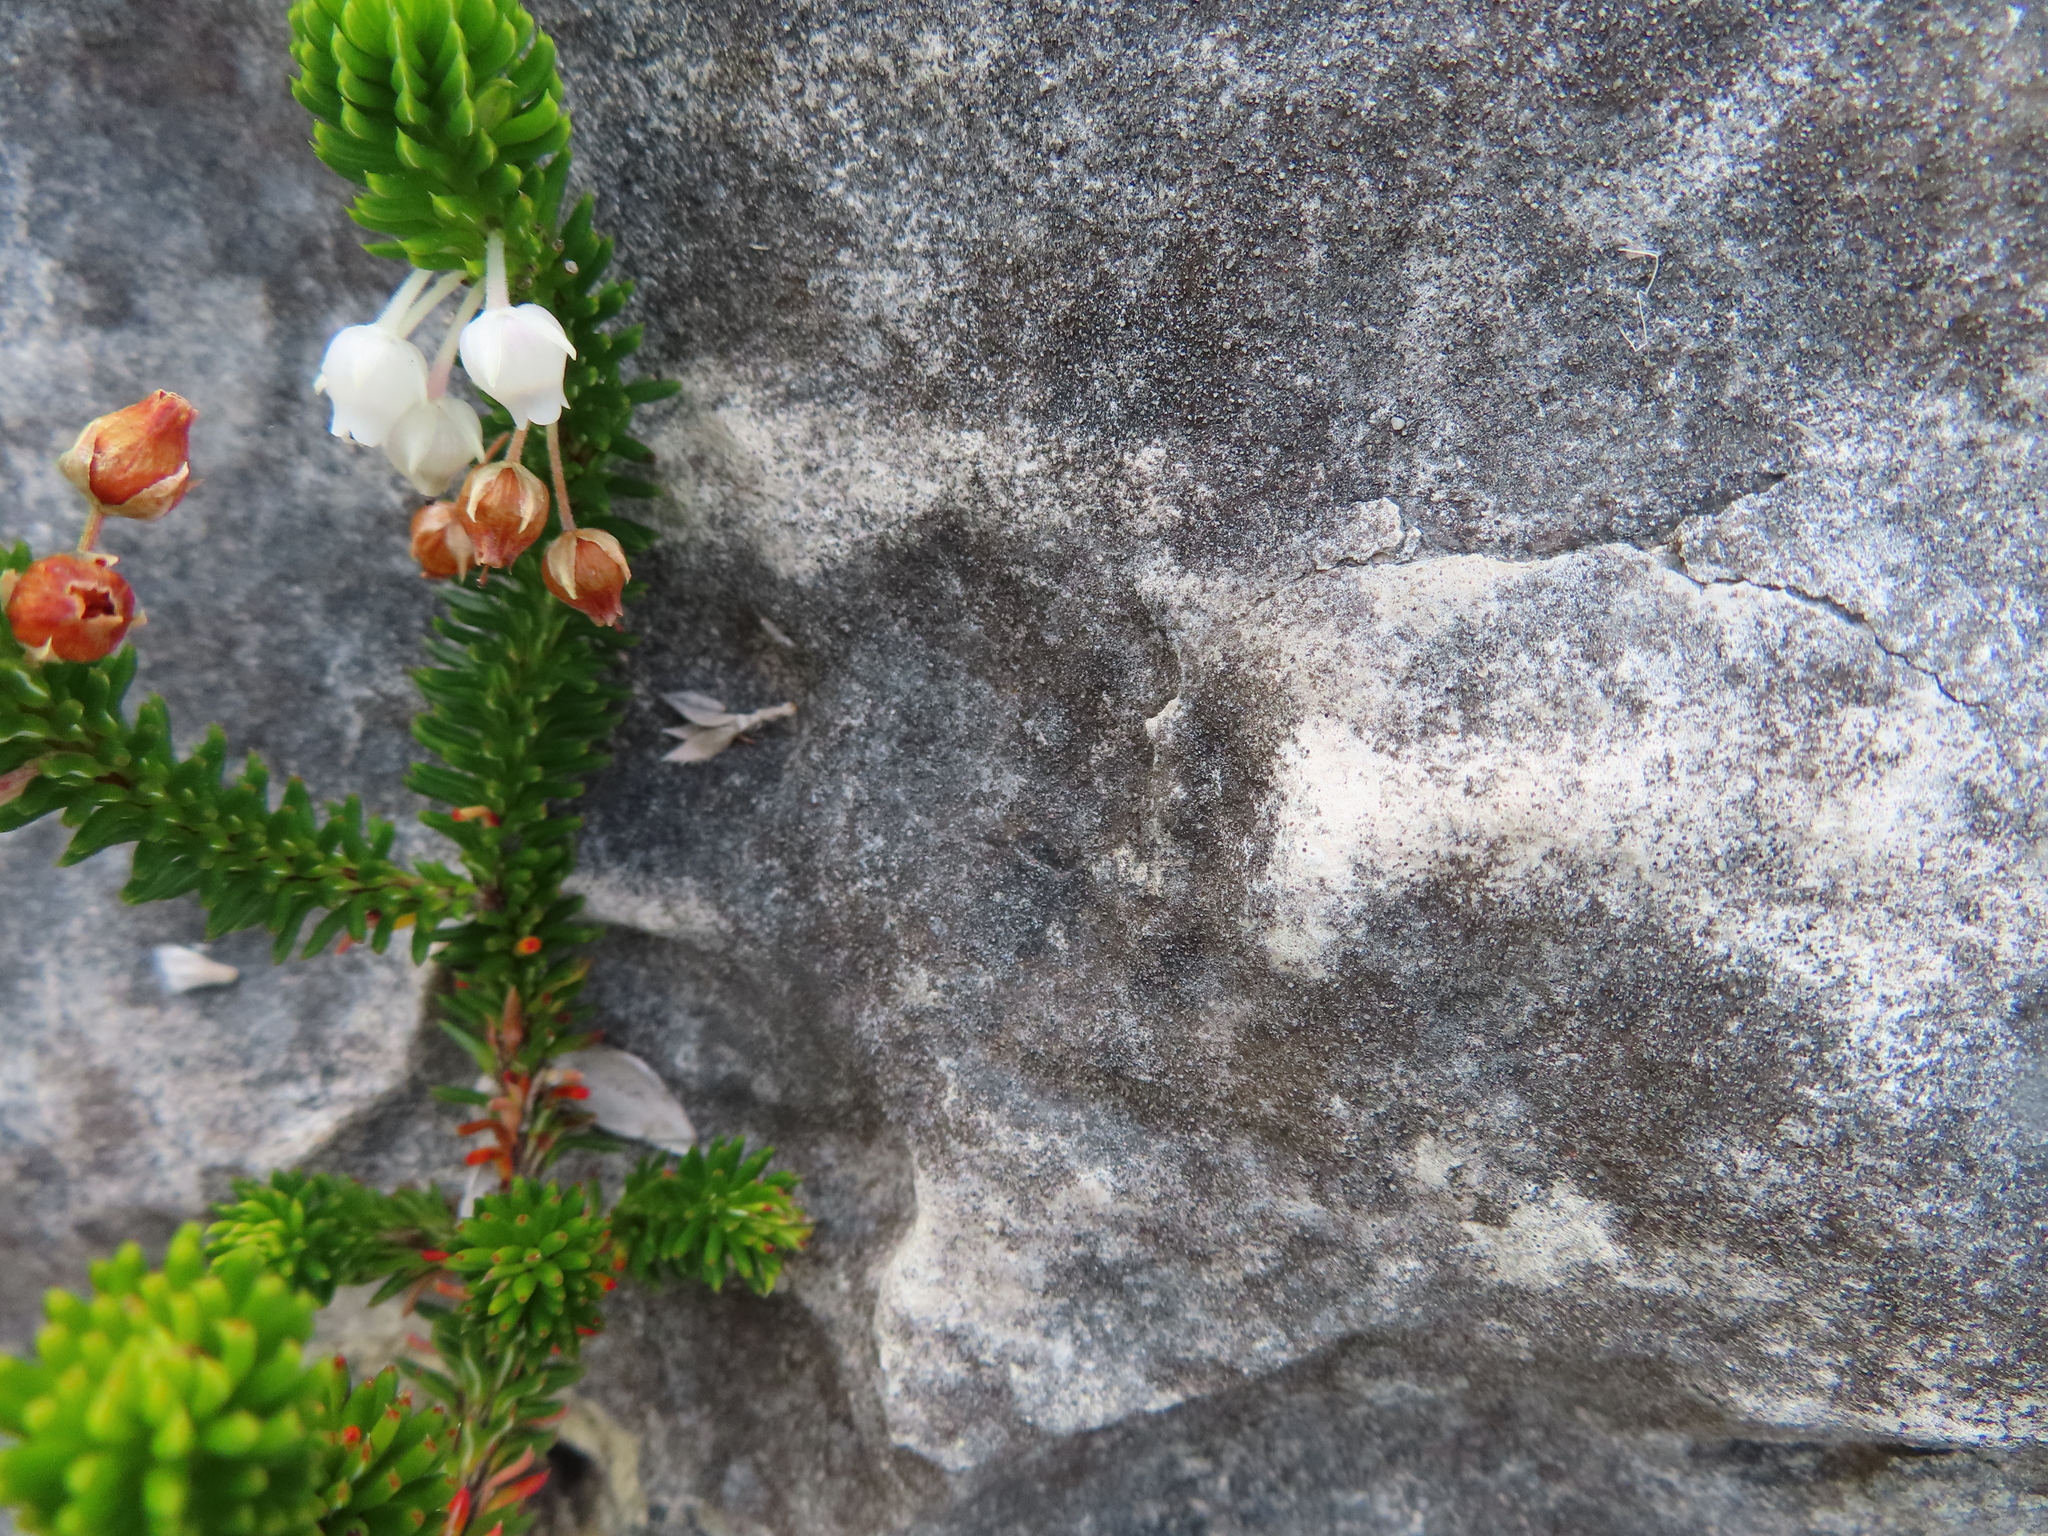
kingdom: Plantae
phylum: Tracheophyta
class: Magnoliopsida
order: Ericales
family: Ericaceae
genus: Erica
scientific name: Erica pulvinata
